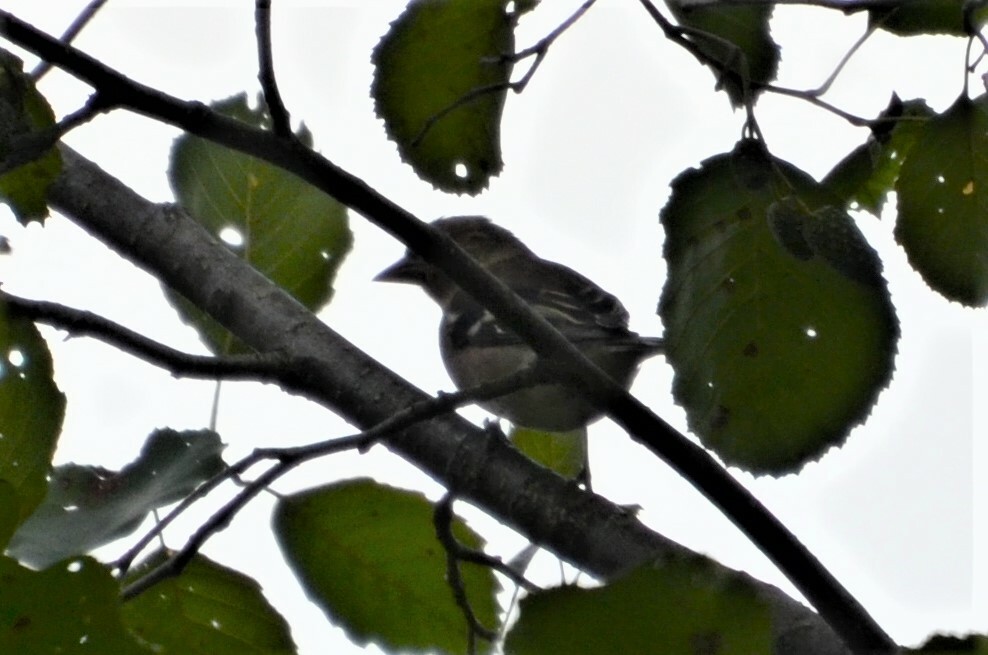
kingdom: Animalia
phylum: Chordata
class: Aves
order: Passeriformes
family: Fringillidae
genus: Fringilla
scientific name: Fringilla coelebs
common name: Common chaffinch
